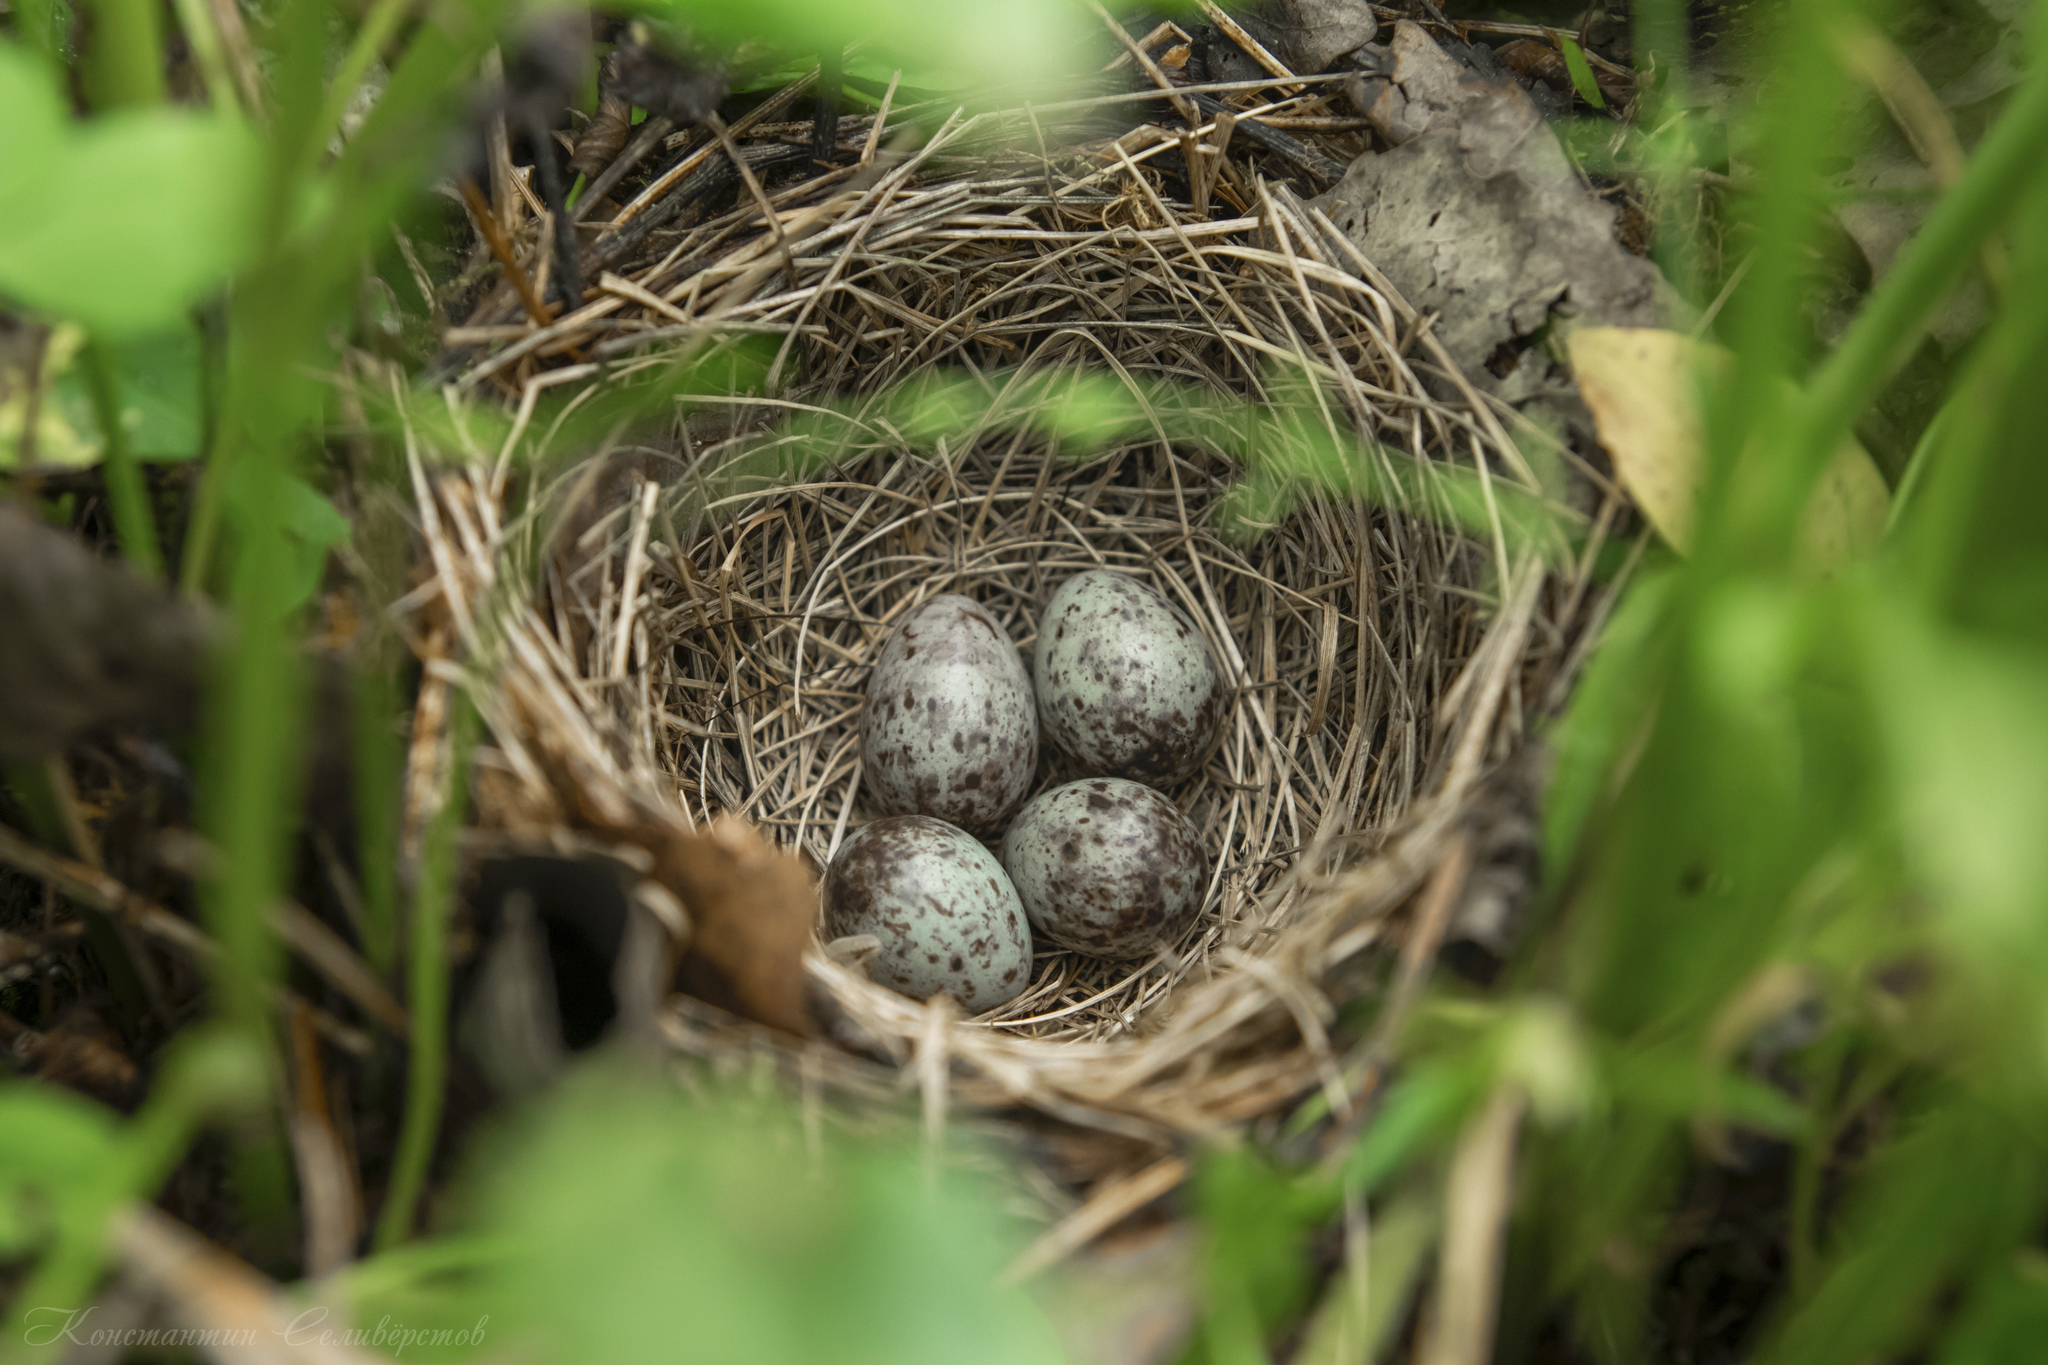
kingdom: Animalia
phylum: Chordata
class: Aves
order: Passeriformes
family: Motacillidae
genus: Anthus
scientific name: Anthus trivialis
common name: Tree pipit
